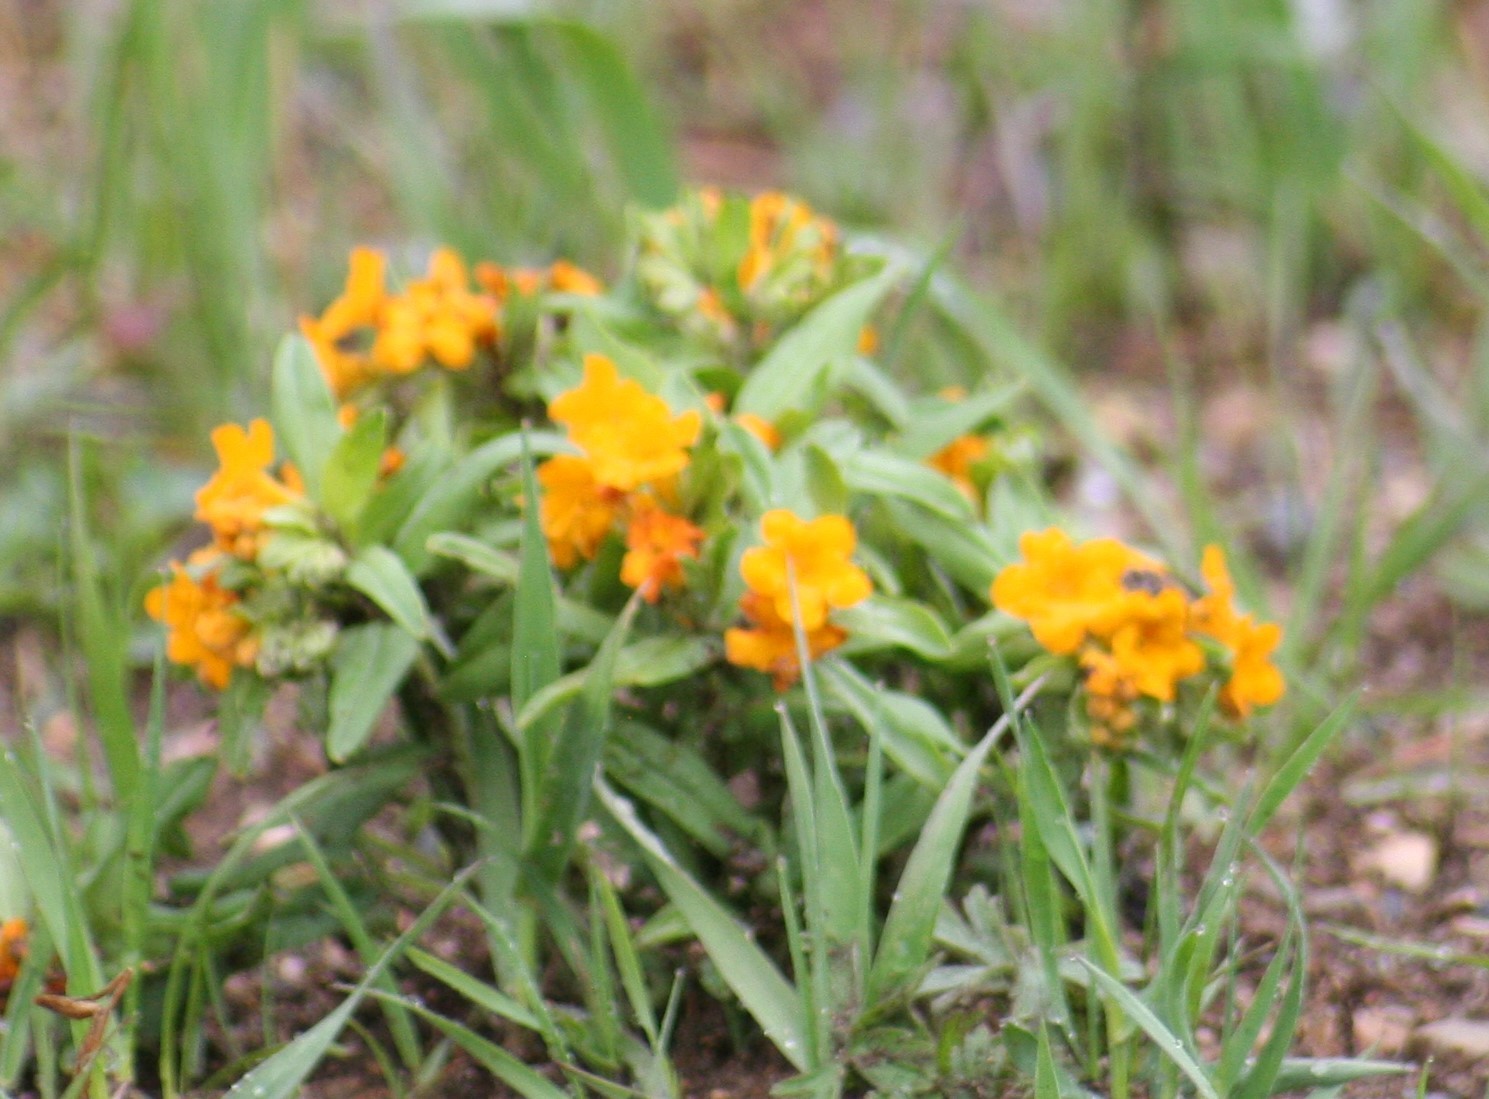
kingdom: Plantae
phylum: Tracheophyta
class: Magnoliopsida
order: Boraginales
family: Boraginaceae
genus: Lithospermum
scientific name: Lithospermum canescens
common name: Hoary puccoon
